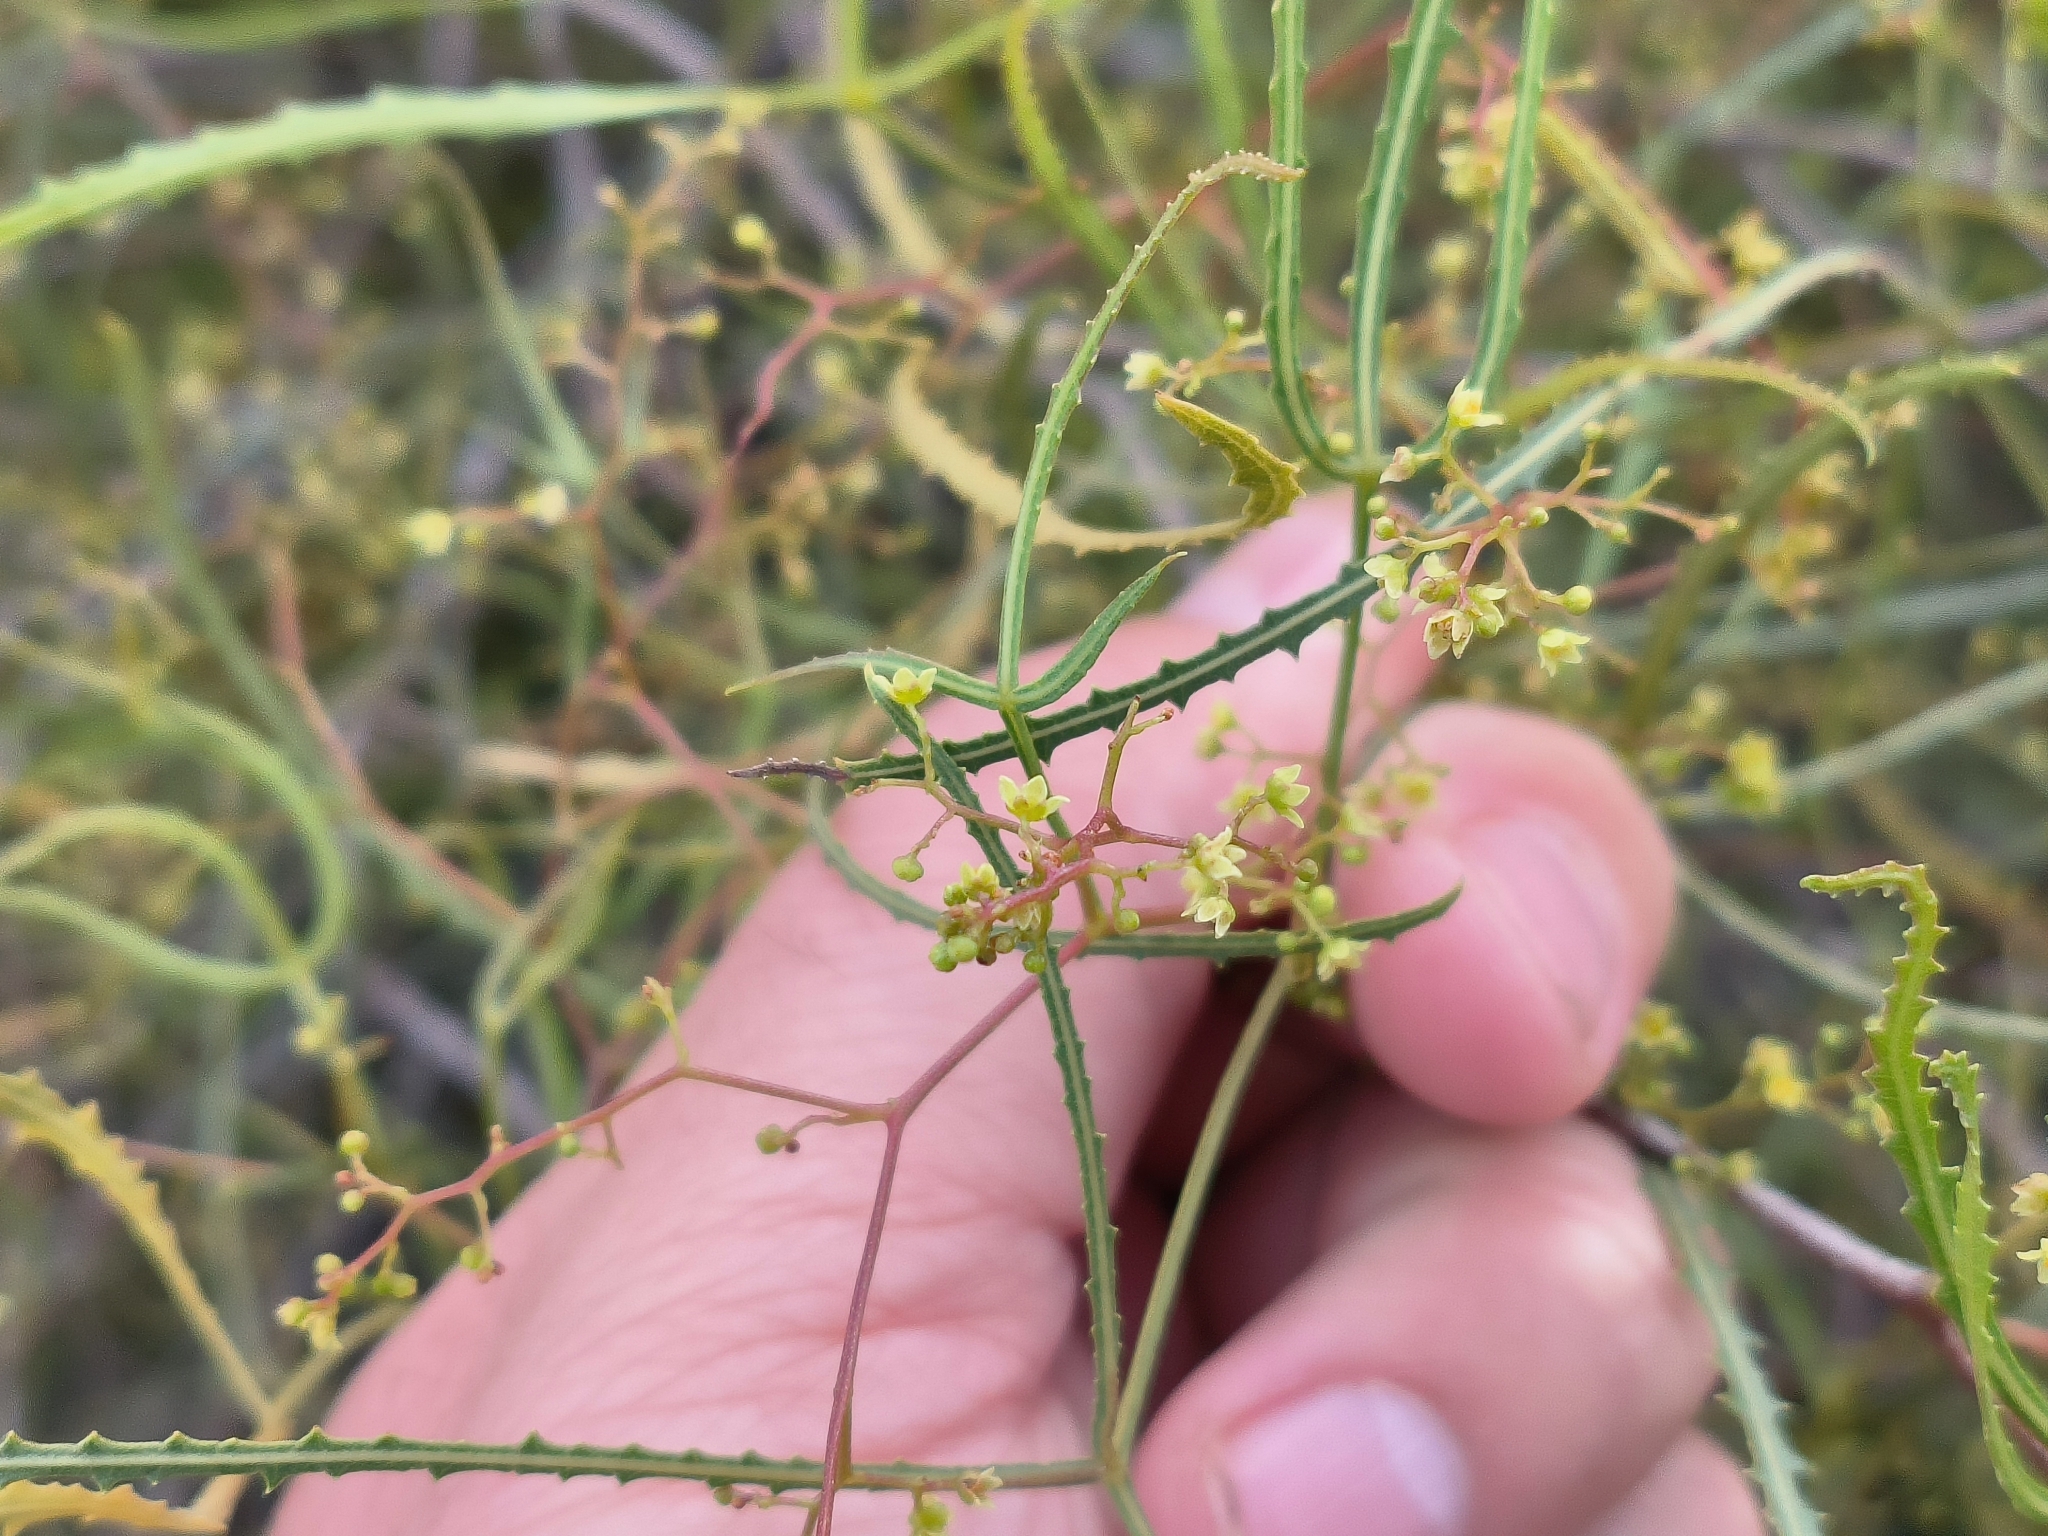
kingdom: Plantae
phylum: Tracheophyta
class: Magnoliopsida
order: Sapindales
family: Anacardiaceae
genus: Searsia
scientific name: Searsia erosa
